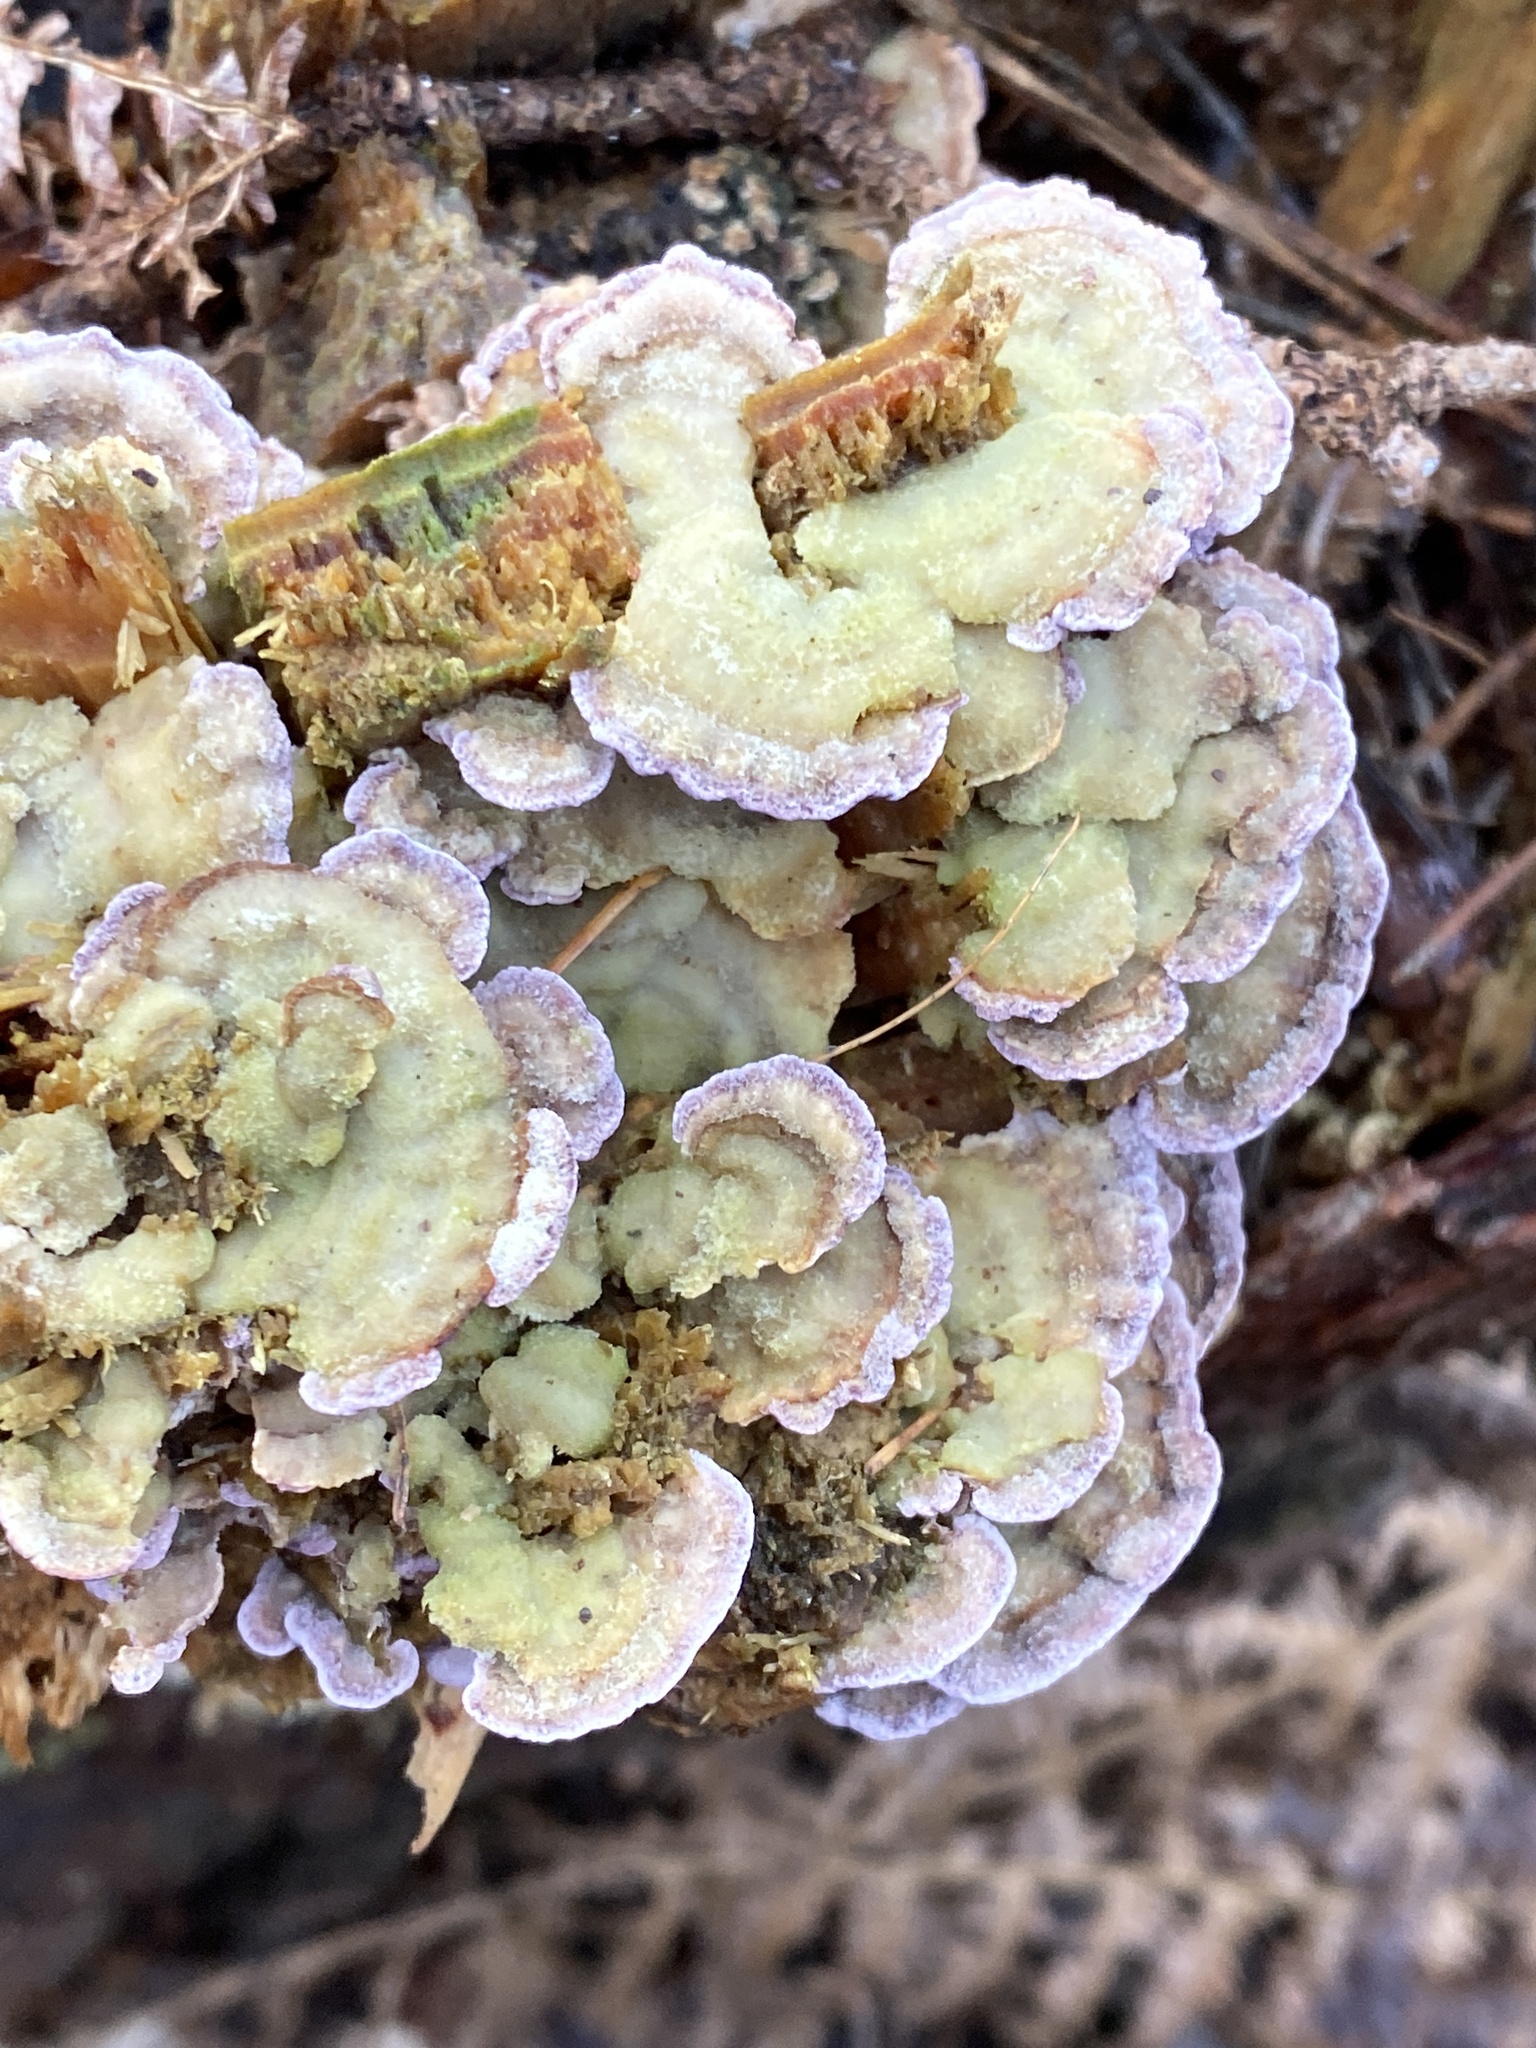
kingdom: Fungi
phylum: Basidiomycota
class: Agaricomycetes
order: Hymenochaetales
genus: Trichaptum
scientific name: Trichaptum abietinum
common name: Purplepore bracket
